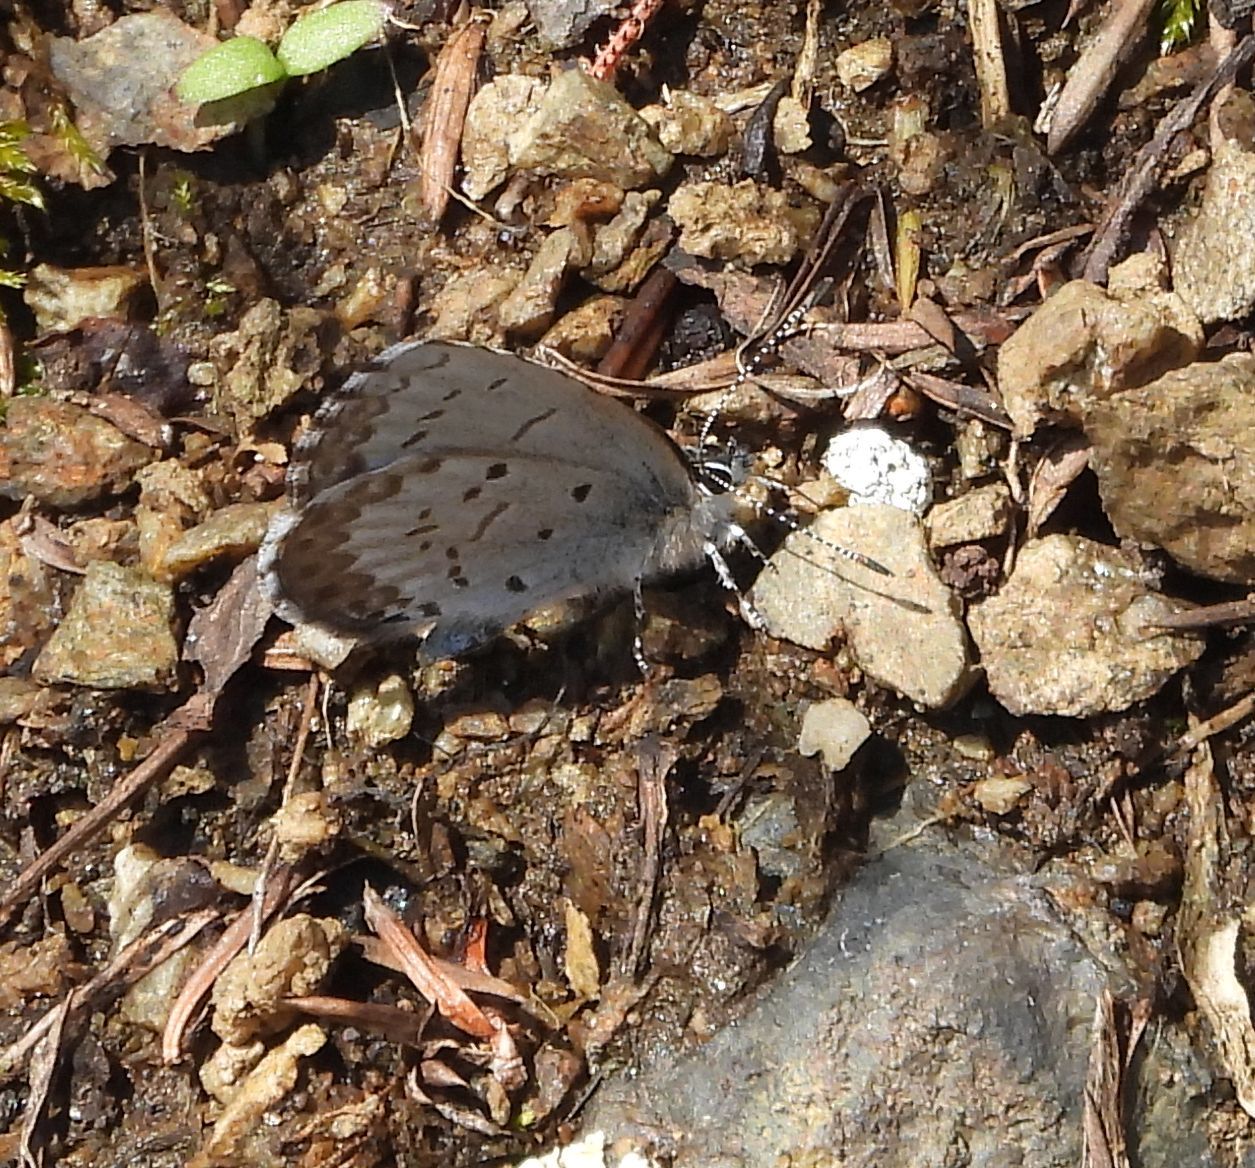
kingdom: Animalia
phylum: Arthropoda
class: Insecta
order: Lepidoptera
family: Lycaenidae
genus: Celastrina
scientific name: Celastrina lucia
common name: Lucia azure
